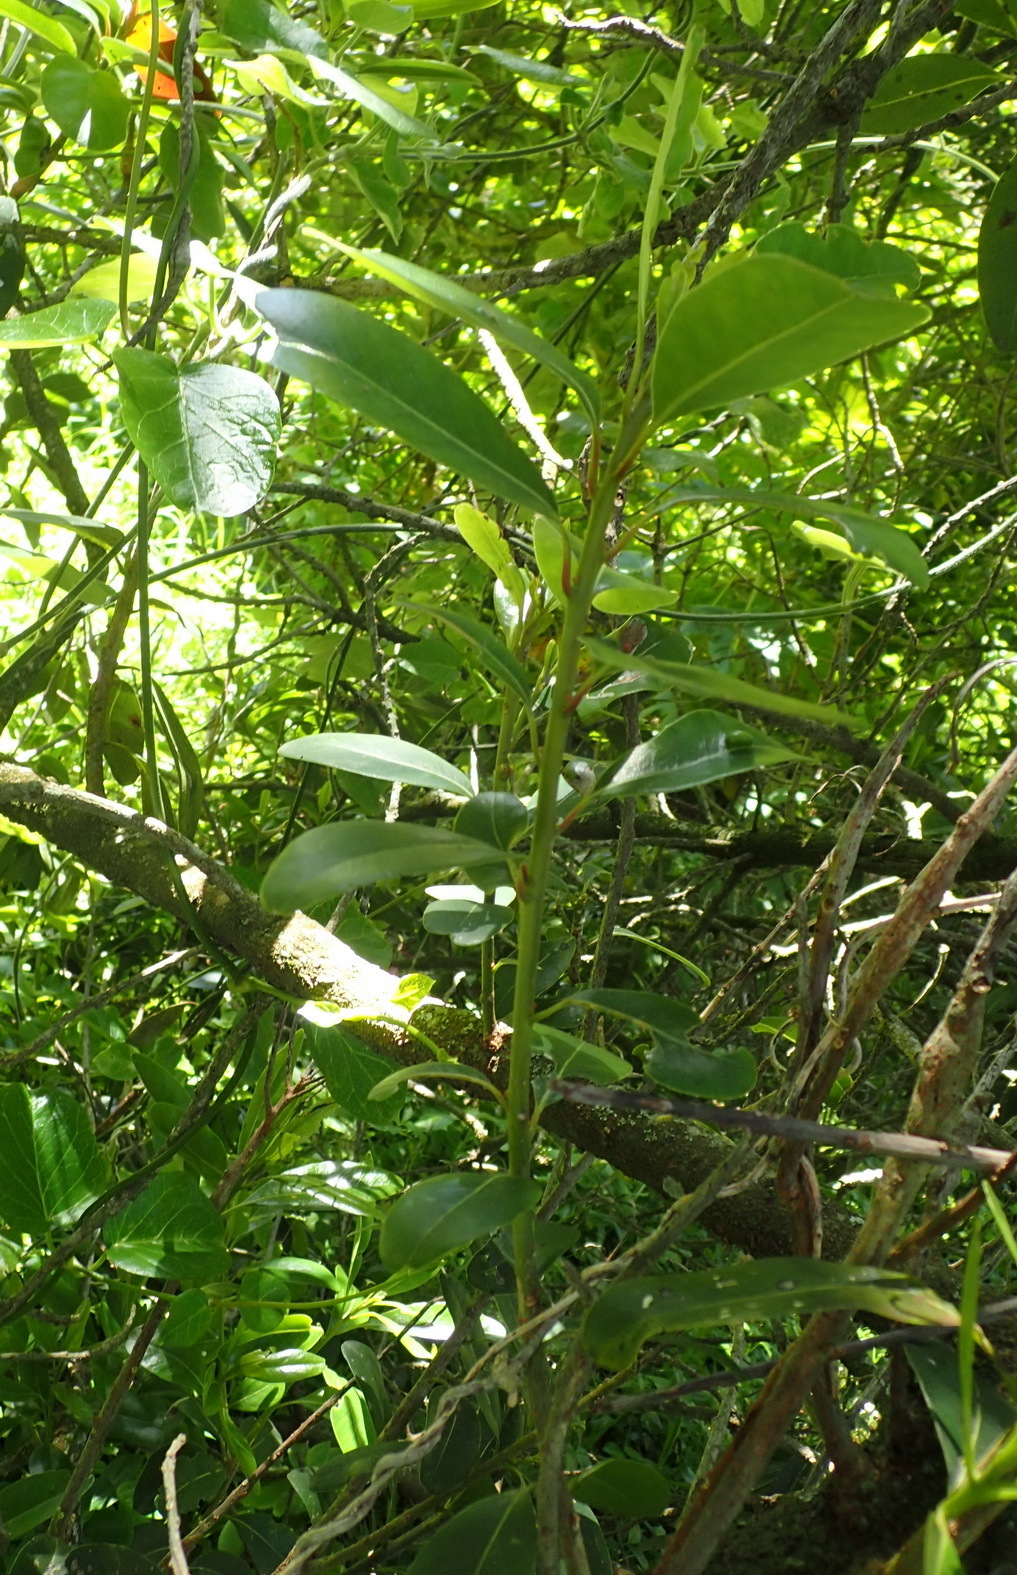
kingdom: Plantae
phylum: Tracheophyta
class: Magnoliopsida
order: Ericales
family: Sapotaceae
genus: Sideroxylon
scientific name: Sideroxylon inerme
